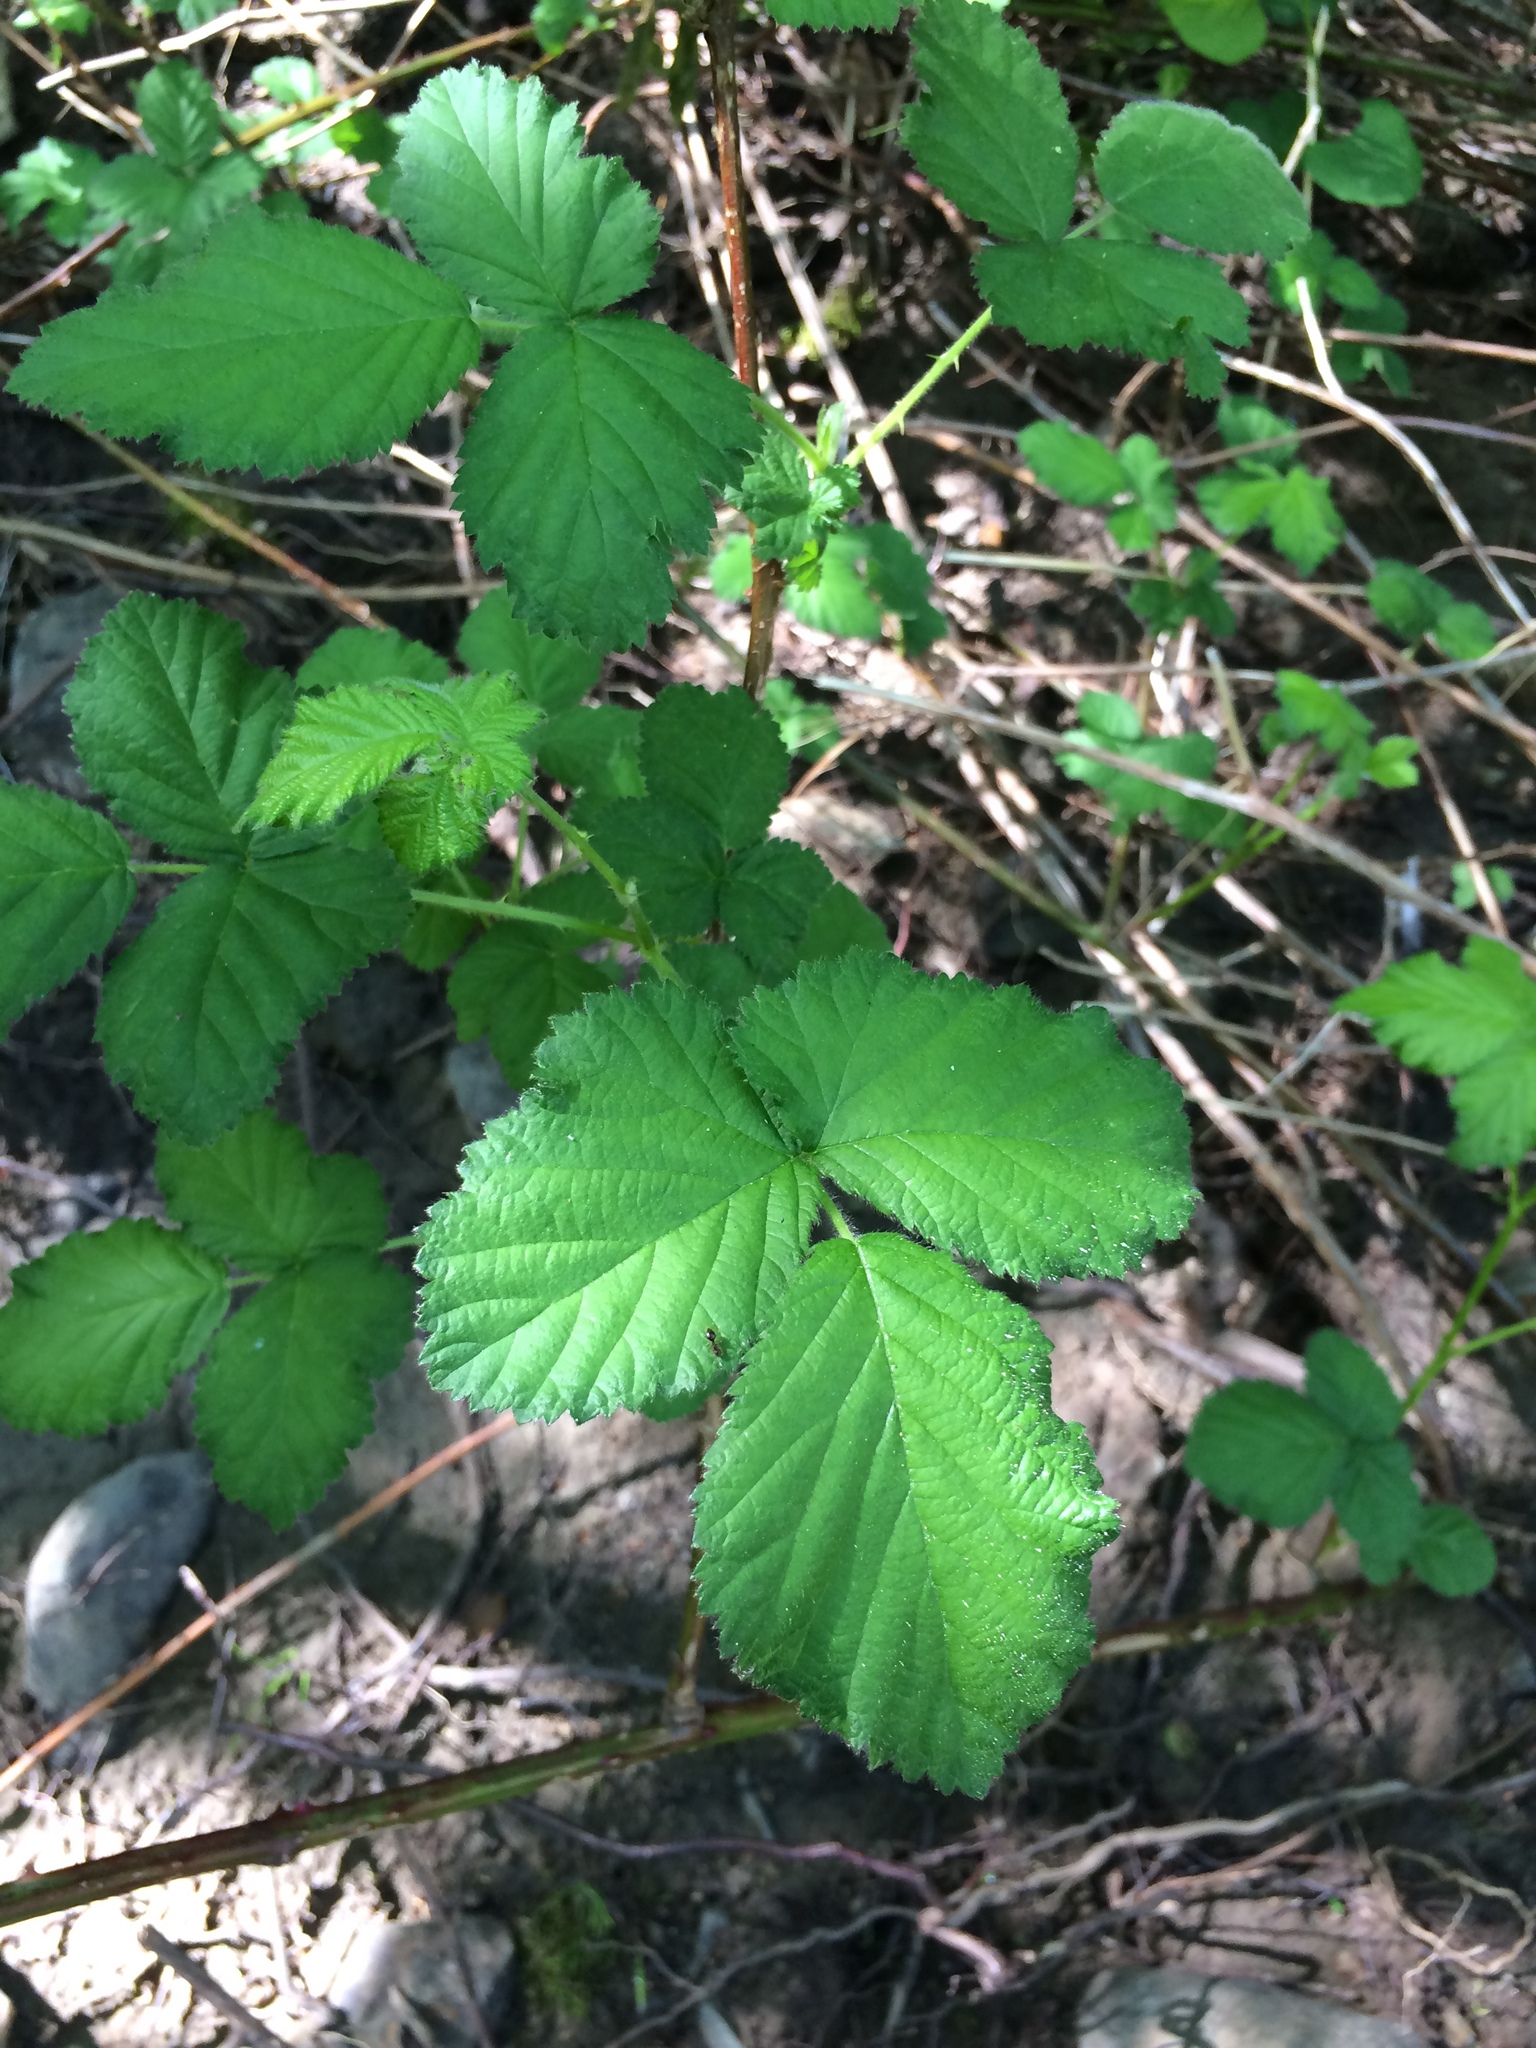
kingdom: Plantae
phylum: Tracheophyta
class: Magnoliopsida
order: Rosales
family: Rosaceae
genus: Rubus
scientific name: Rubus armeniacus
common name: Himalayan blackberry
